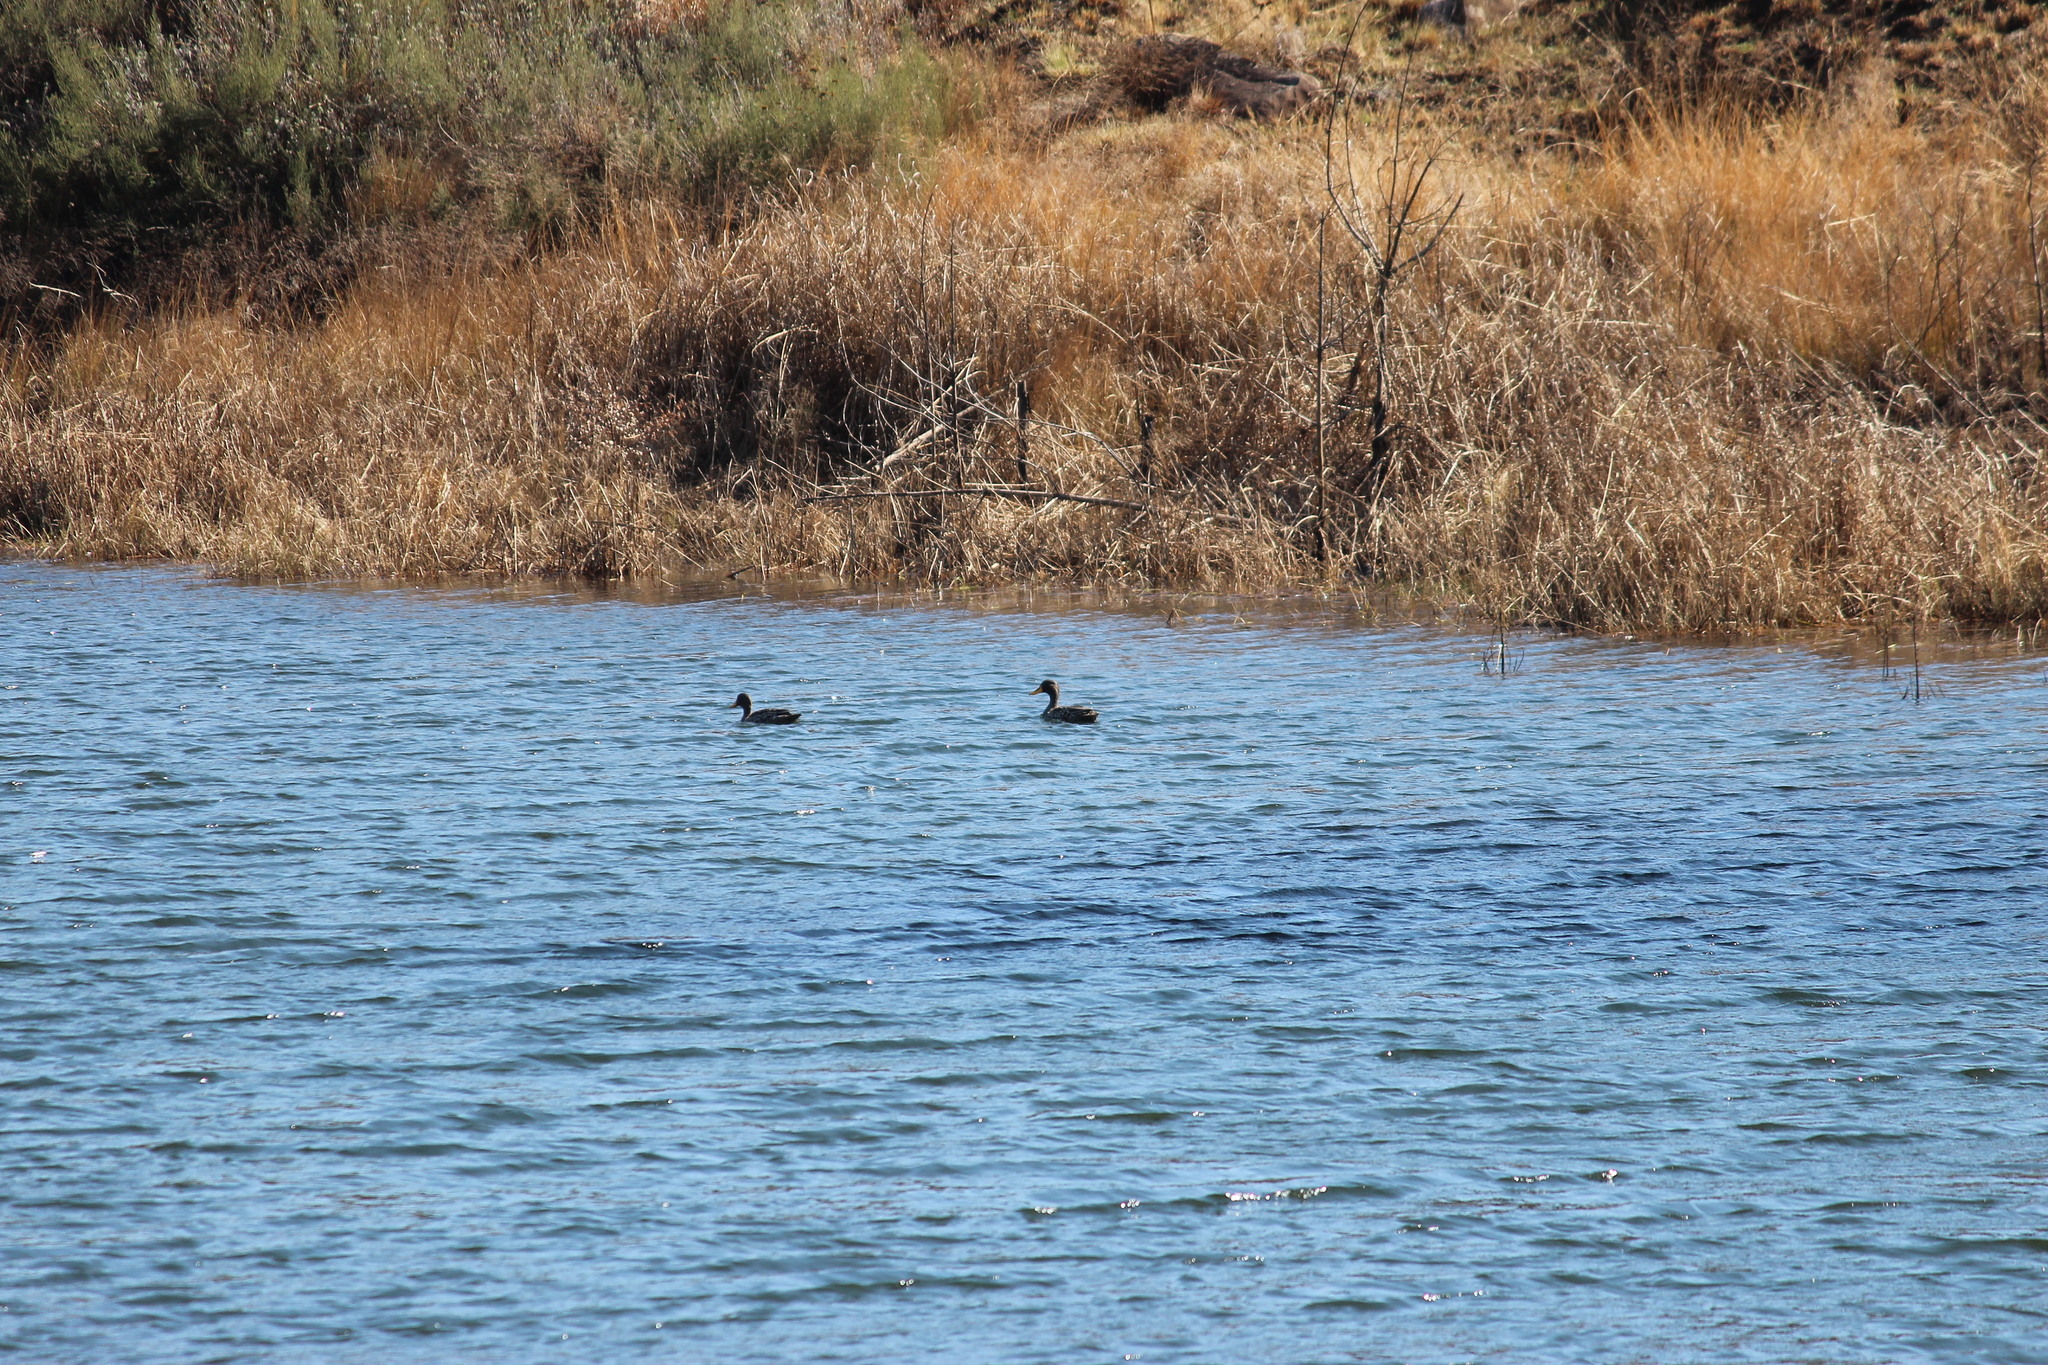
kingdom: Animalia
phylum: Chordata
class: Aves
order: Anseriformes
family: Anatidae
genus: Anas
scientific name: Anas undulata
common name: Yellow-billed duck
